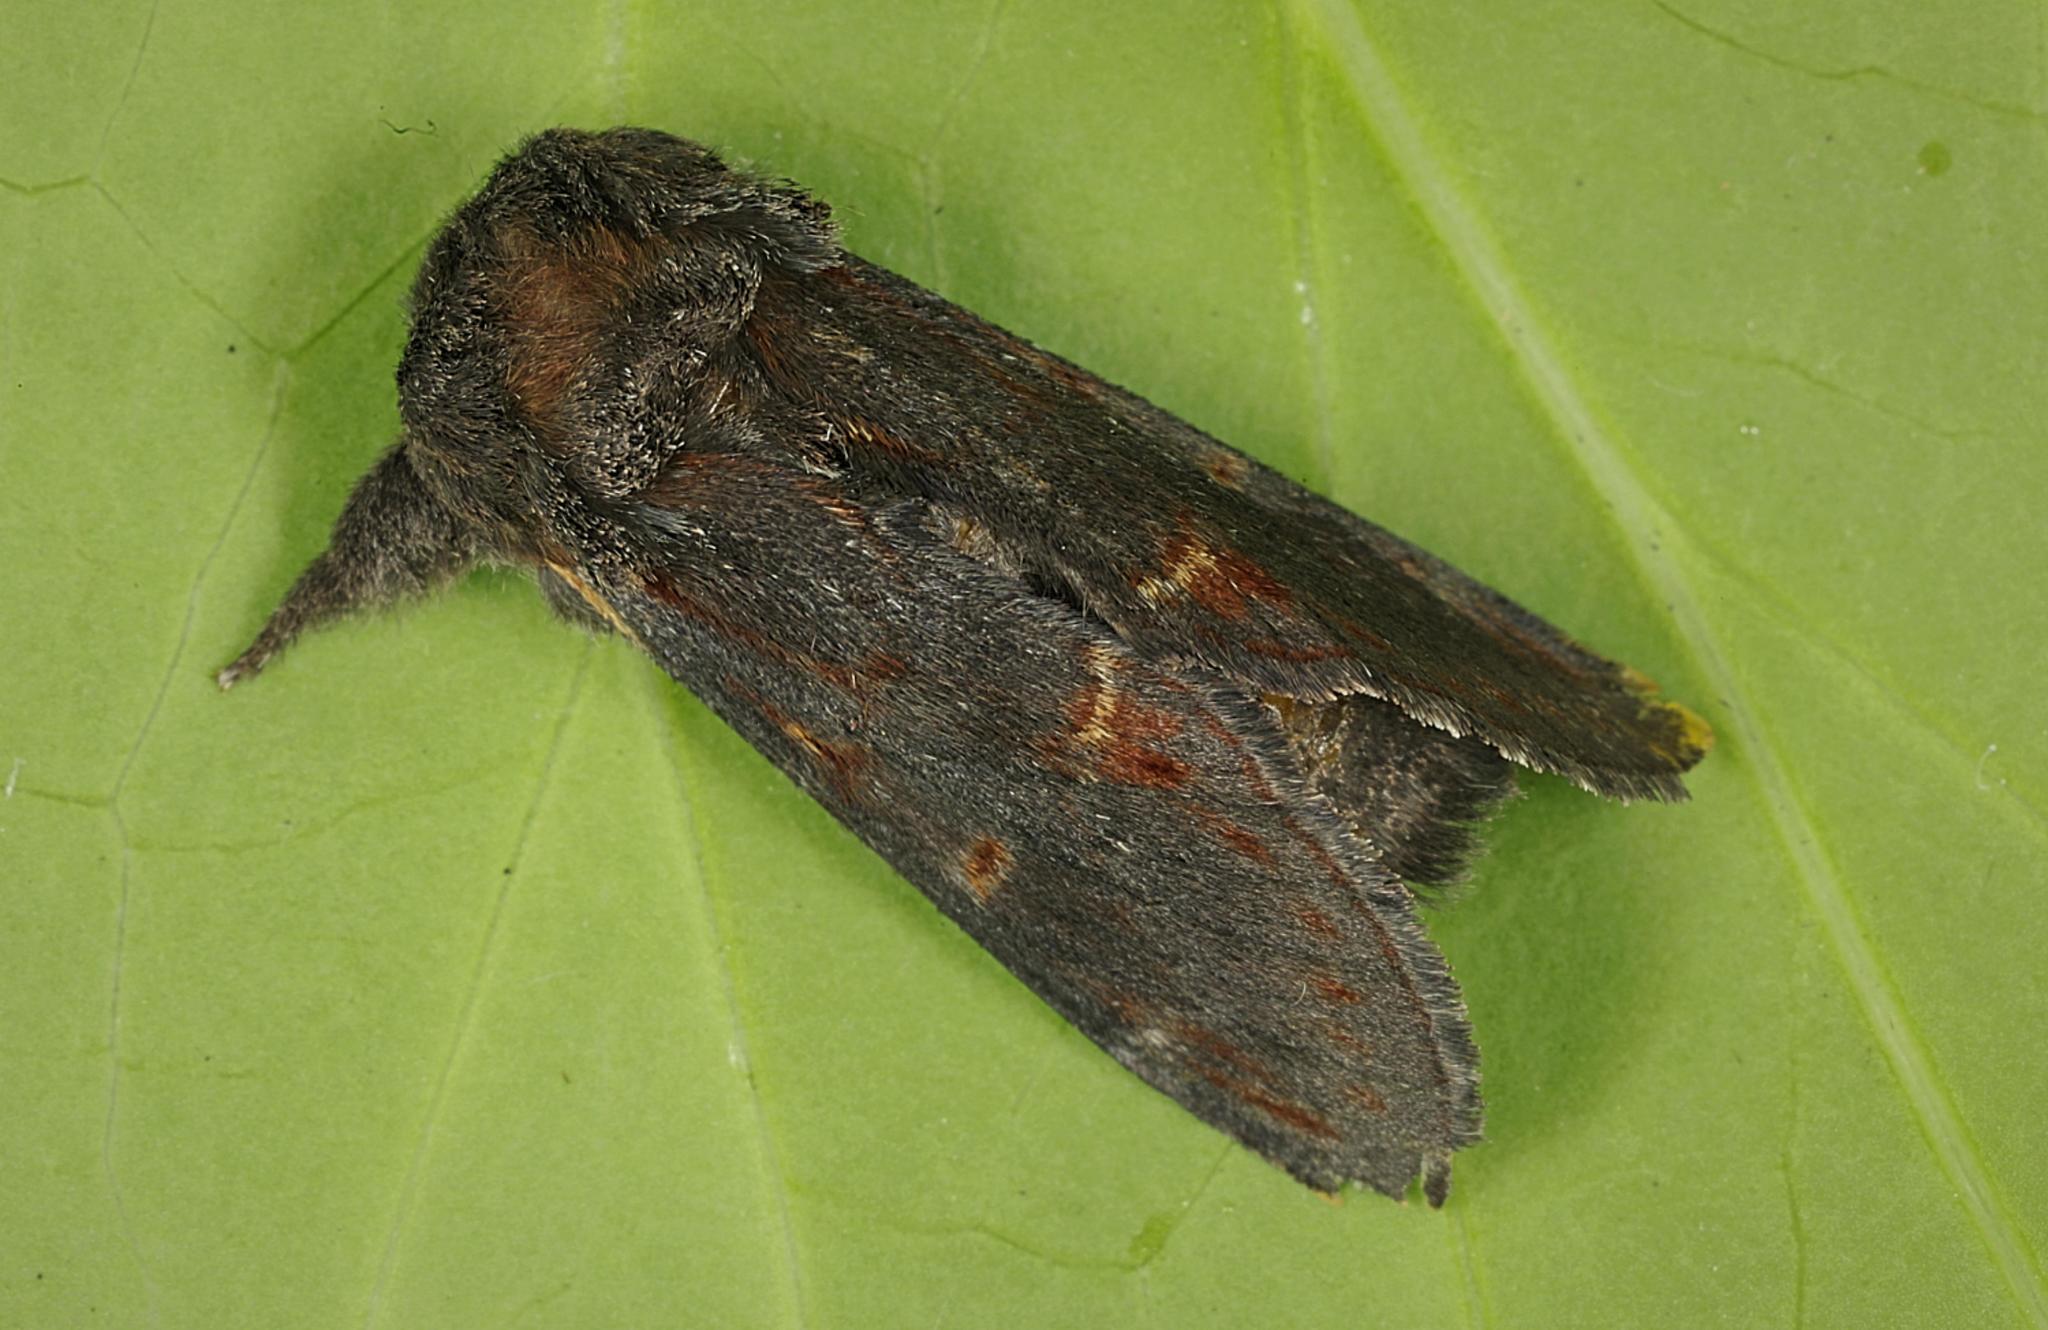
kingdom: Animalia
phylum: Arthropoda
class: Insecta
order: Lepidoptera
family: Notodontidae
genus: Notodonta
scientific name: Notodonta dromedarius
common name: Iron prominent
